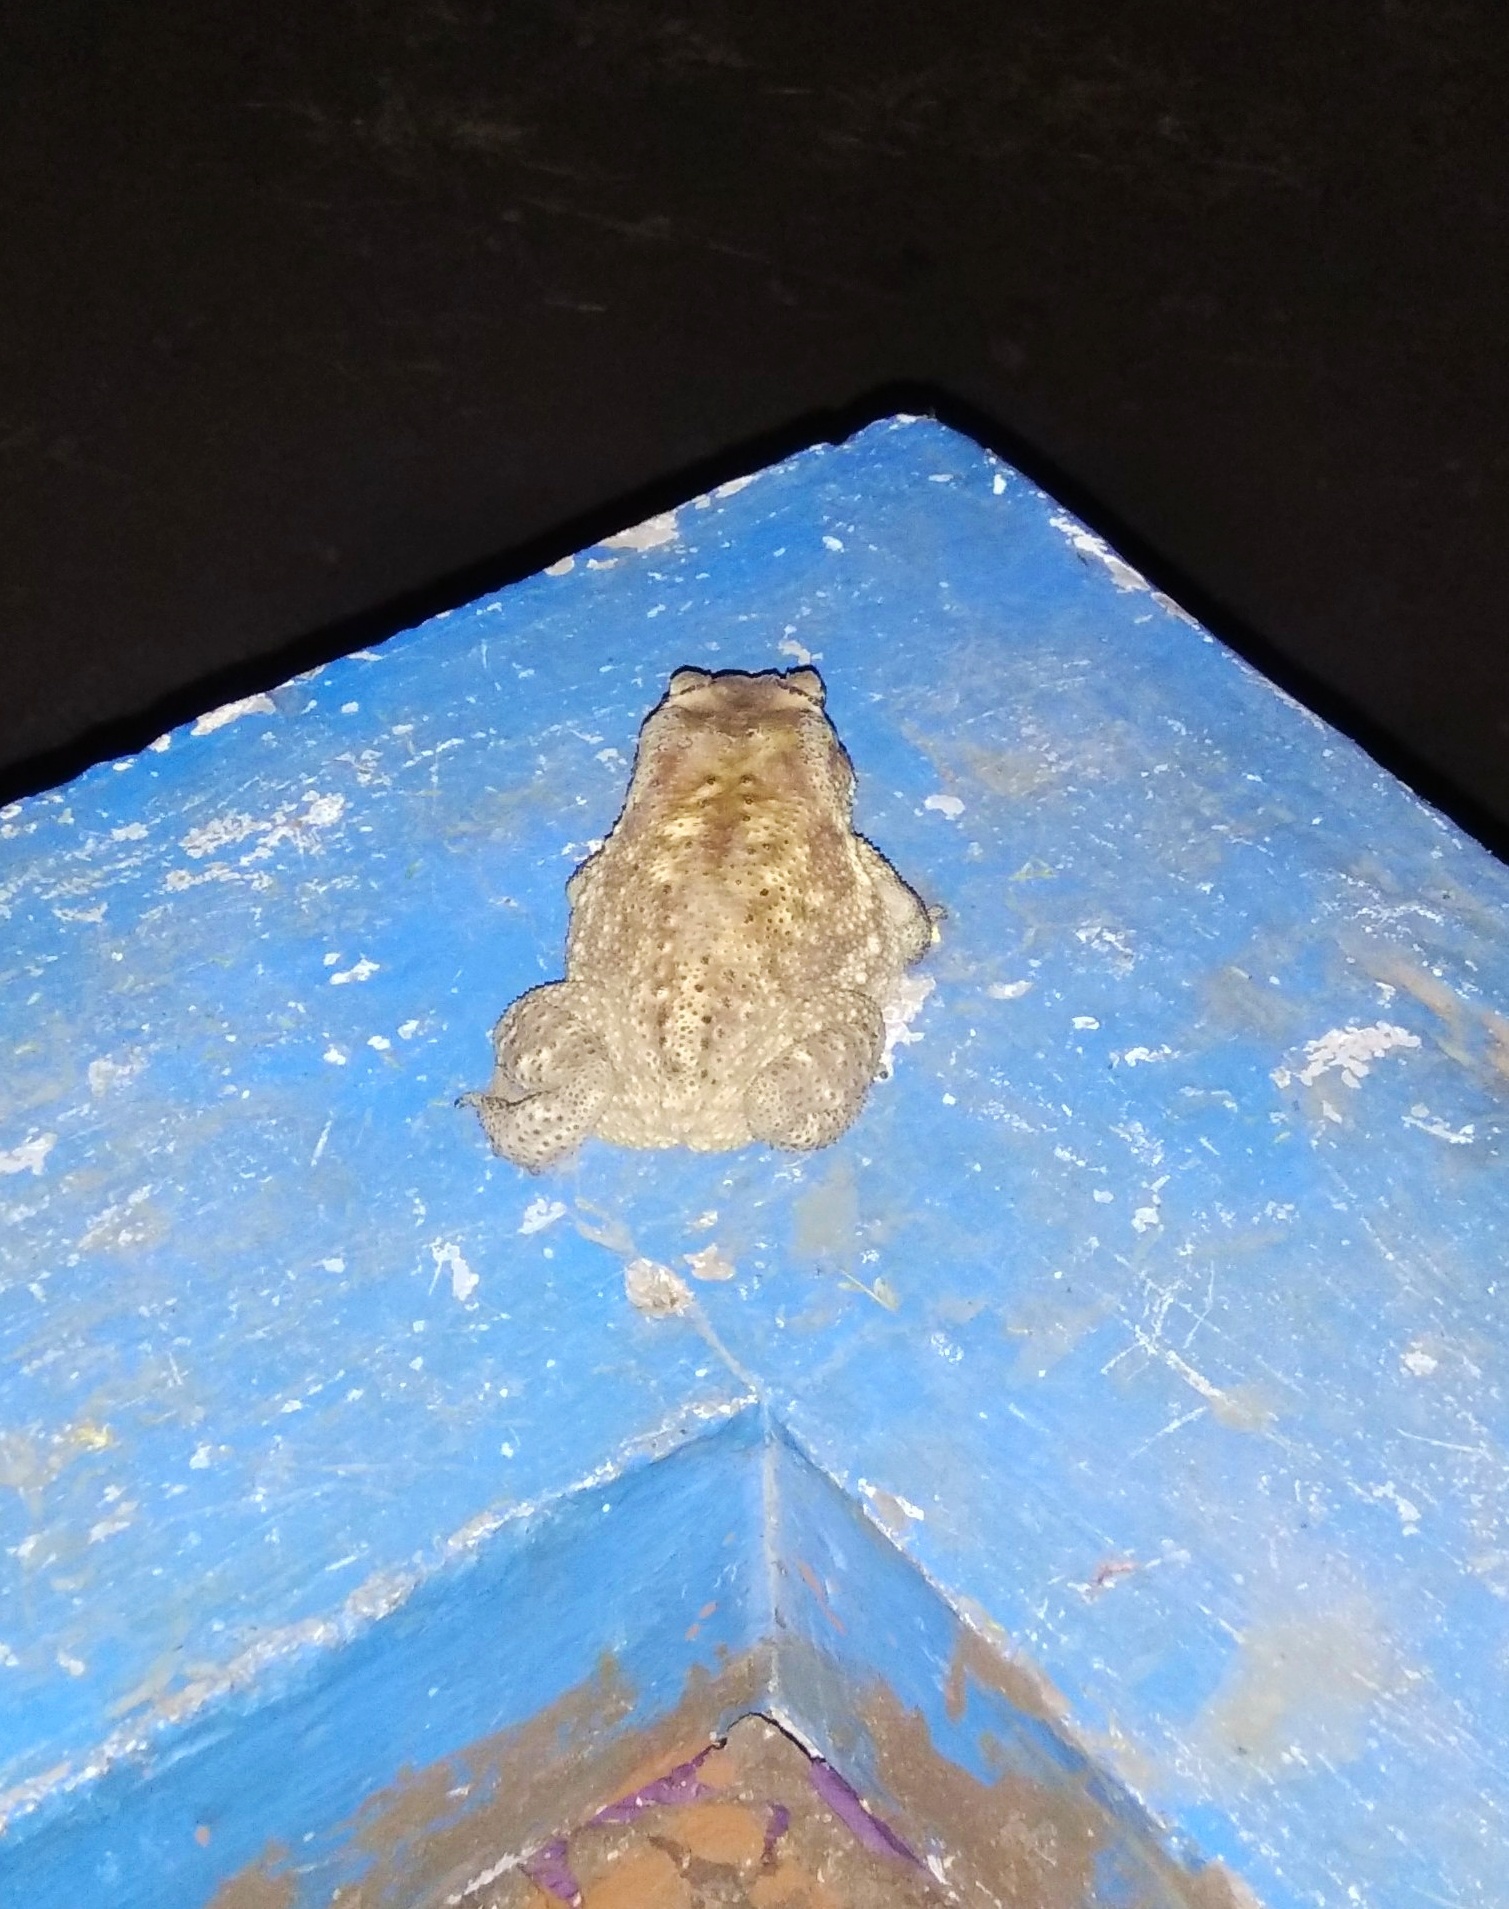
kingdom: Animalia
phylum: Chordata
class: Amphibia
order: Anura
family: Bufonidae
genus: Duttaphrynus
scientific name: Duttaphrynus melanostictus
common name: Common sunda toad
